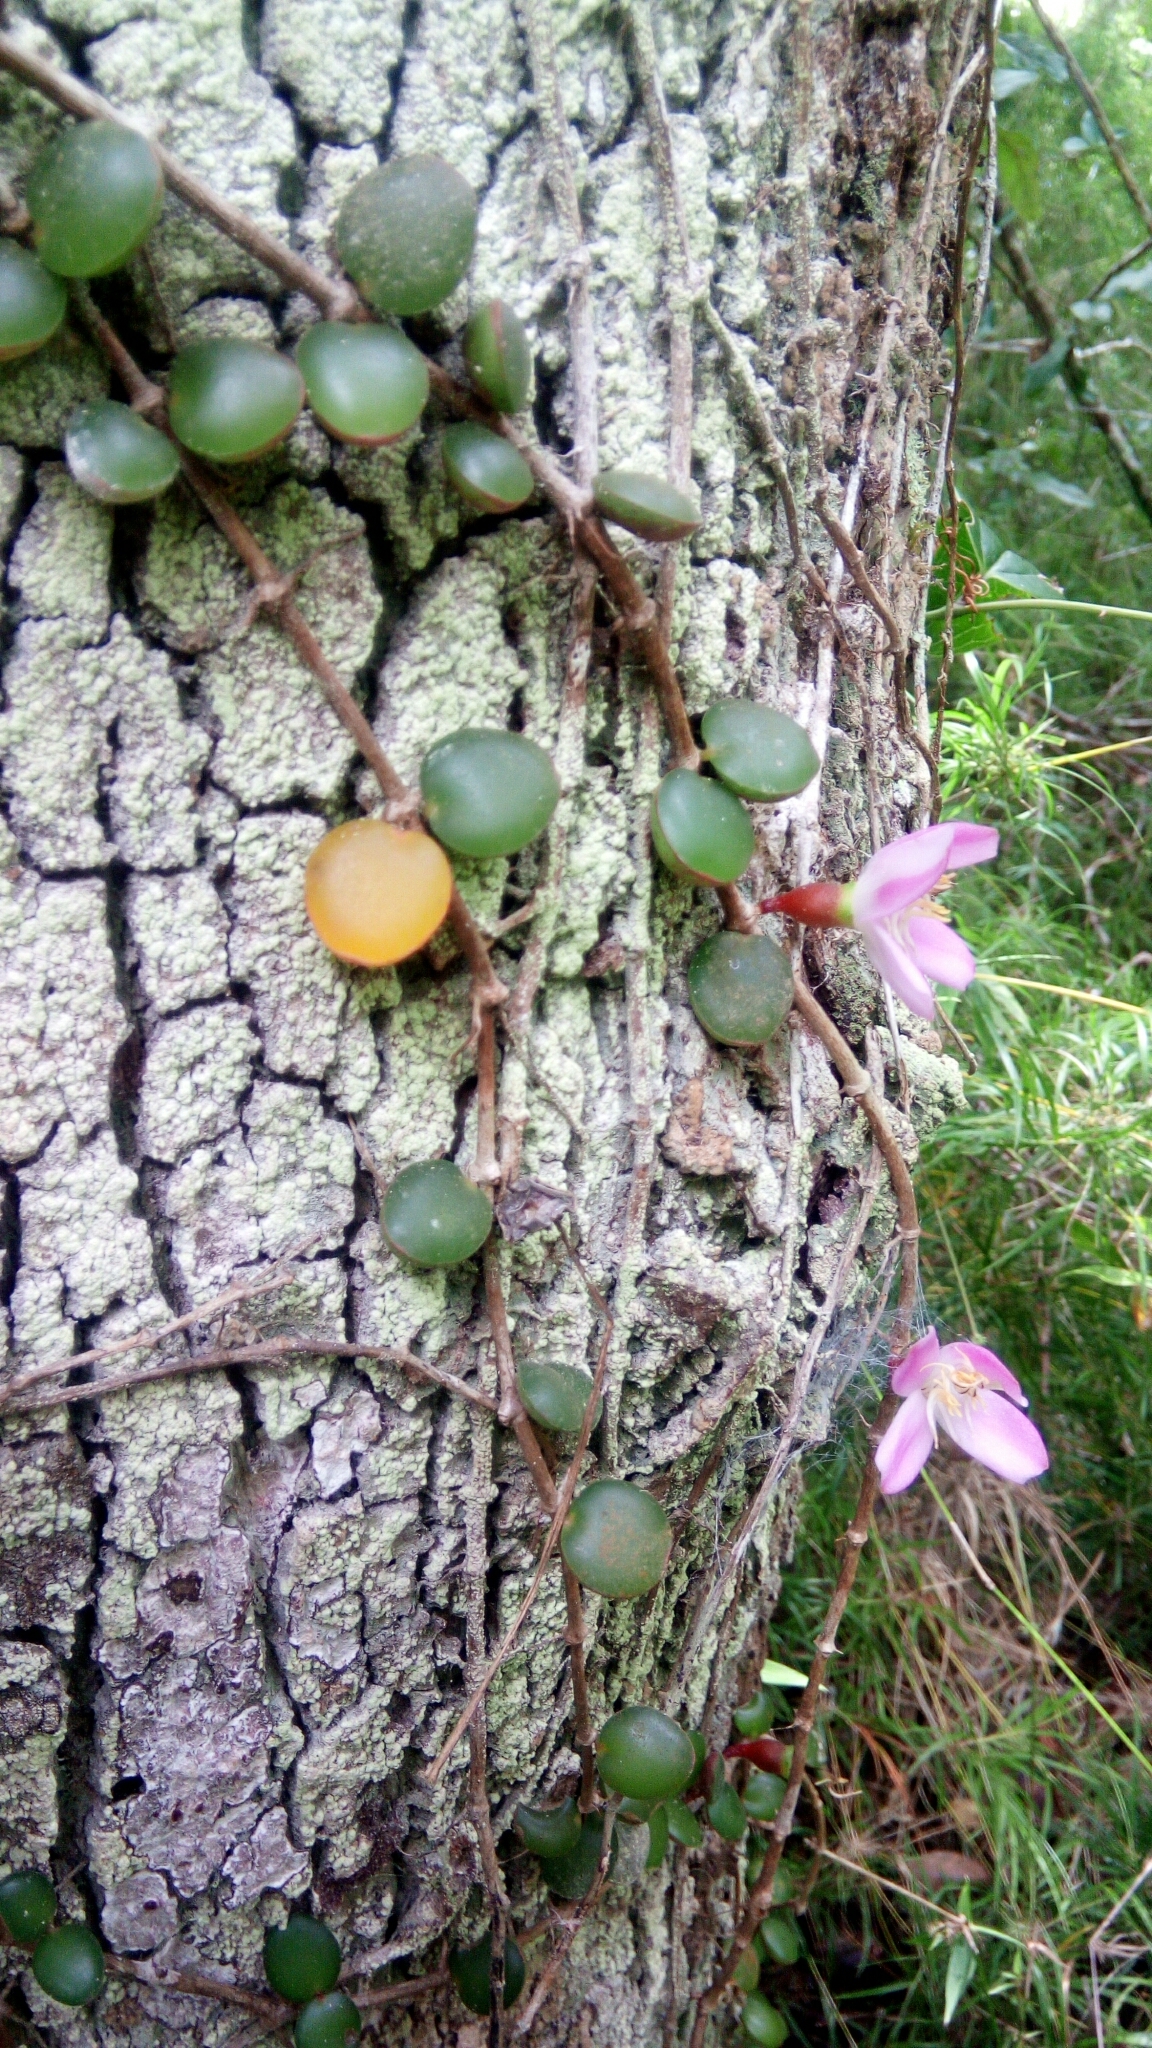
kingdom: Plantae
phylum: Tracheophyta
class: Magnoliopsida
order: Myrtales
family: Melastomataceae
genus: Medinilla
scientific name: Medinilla sedifolia
